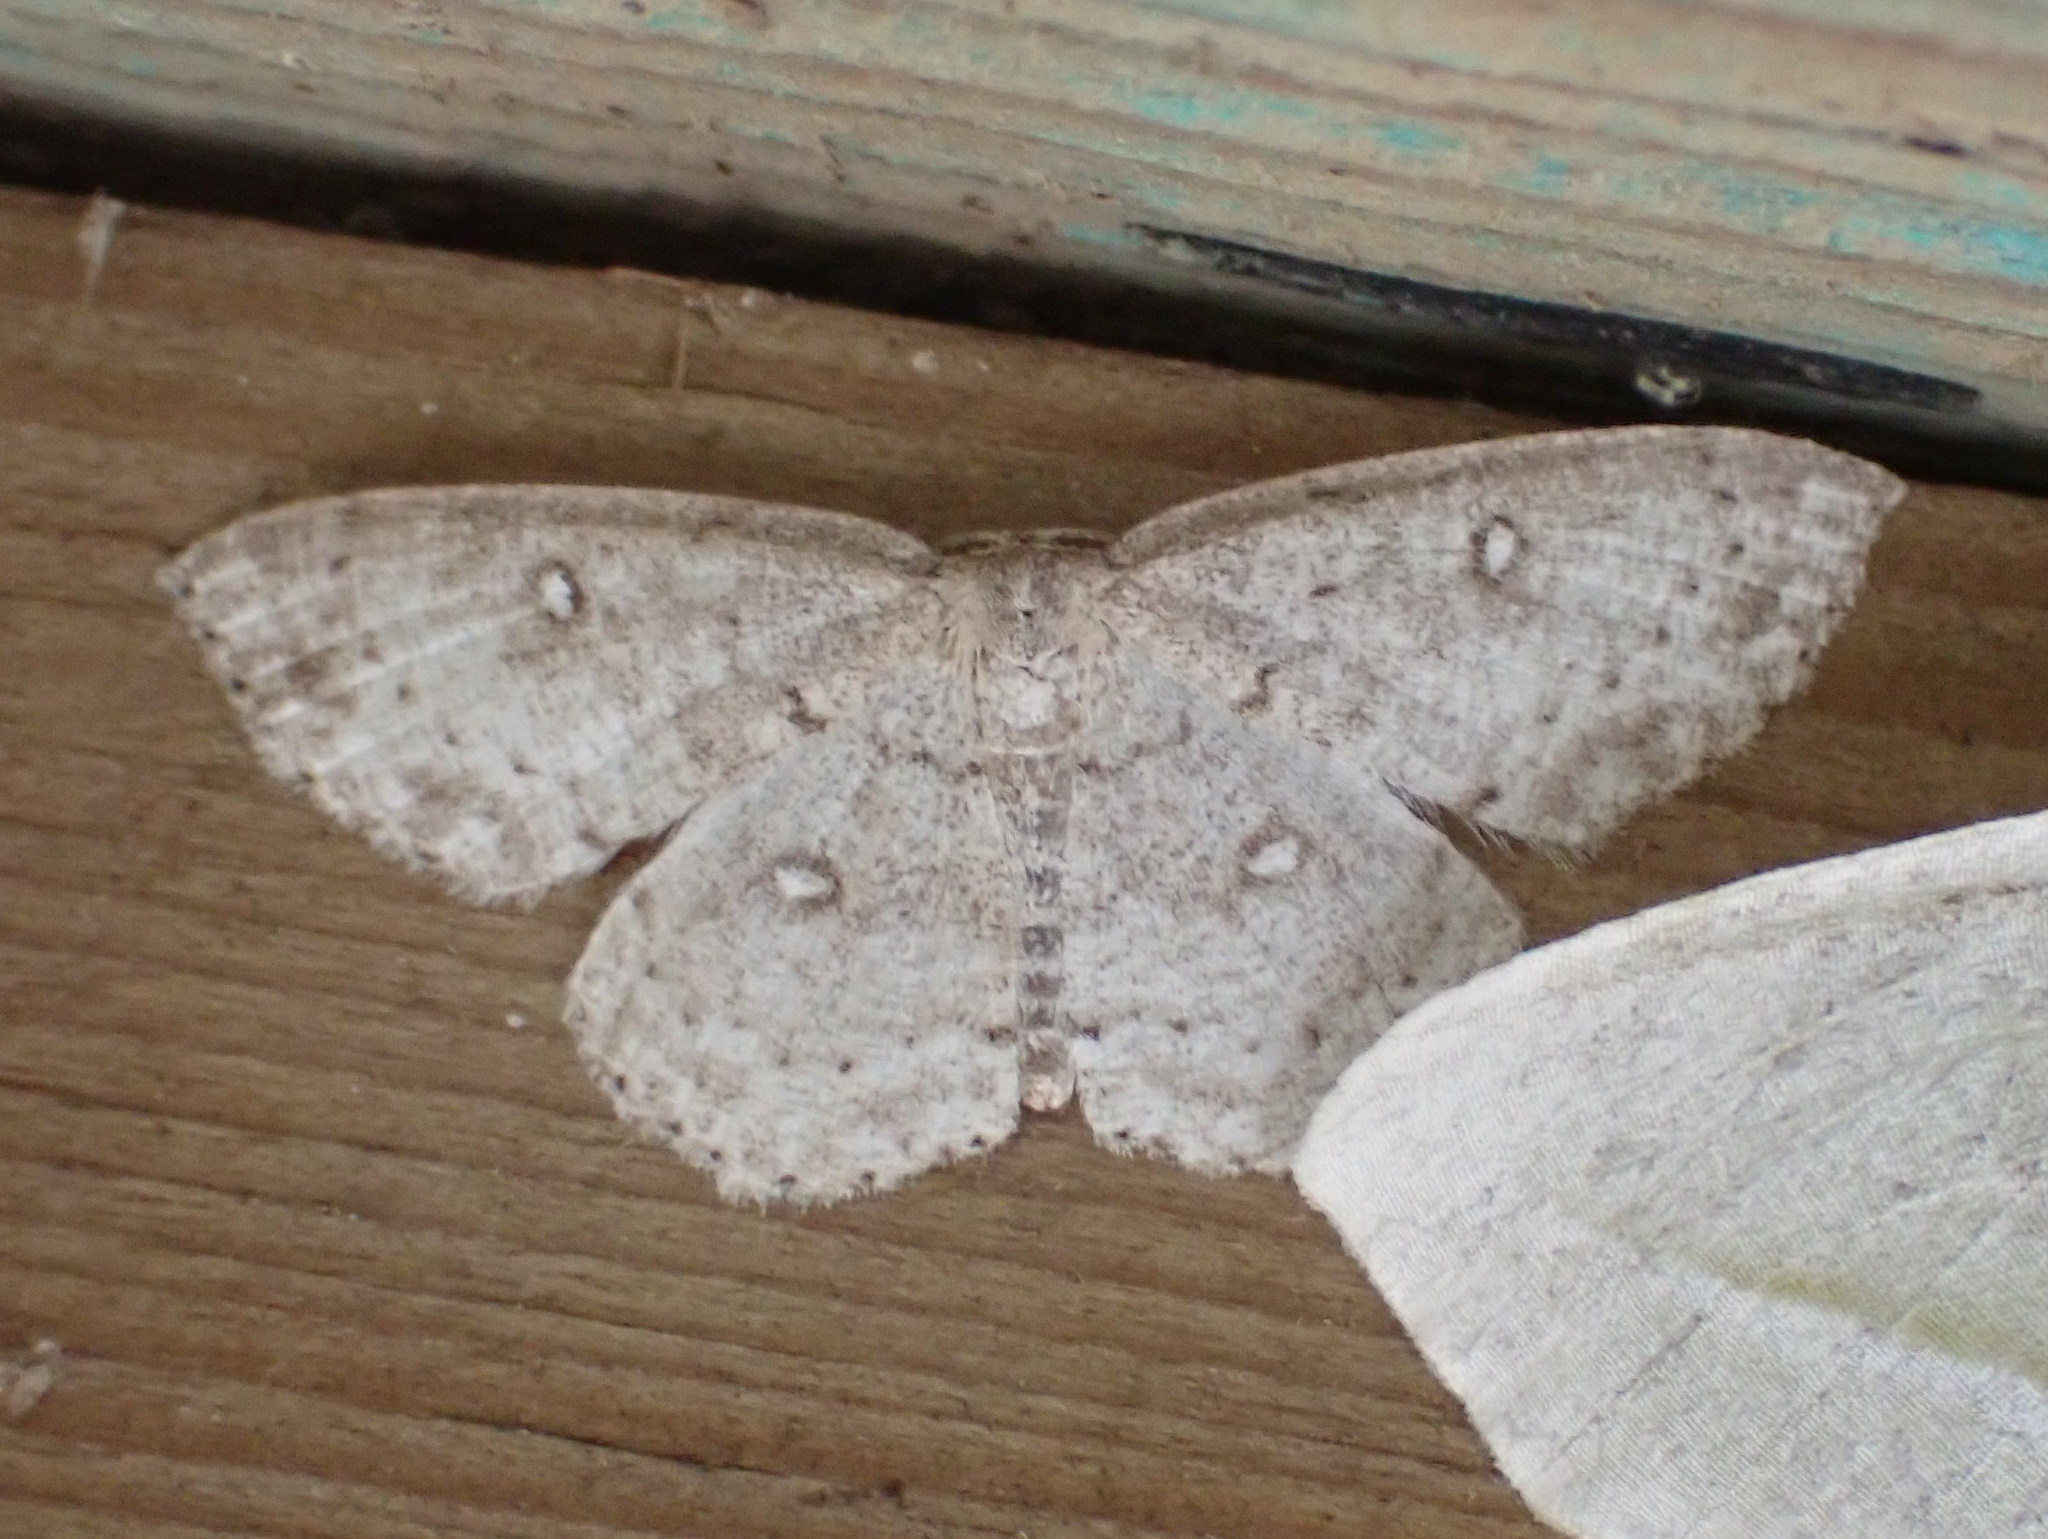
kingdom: Animalia
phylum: Arthropoda
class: Insecta
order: Lepidoptera
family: Geometridae
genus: Cyclophora
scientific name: Cyclophora pendulinaria
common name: Sweet fern geometer
